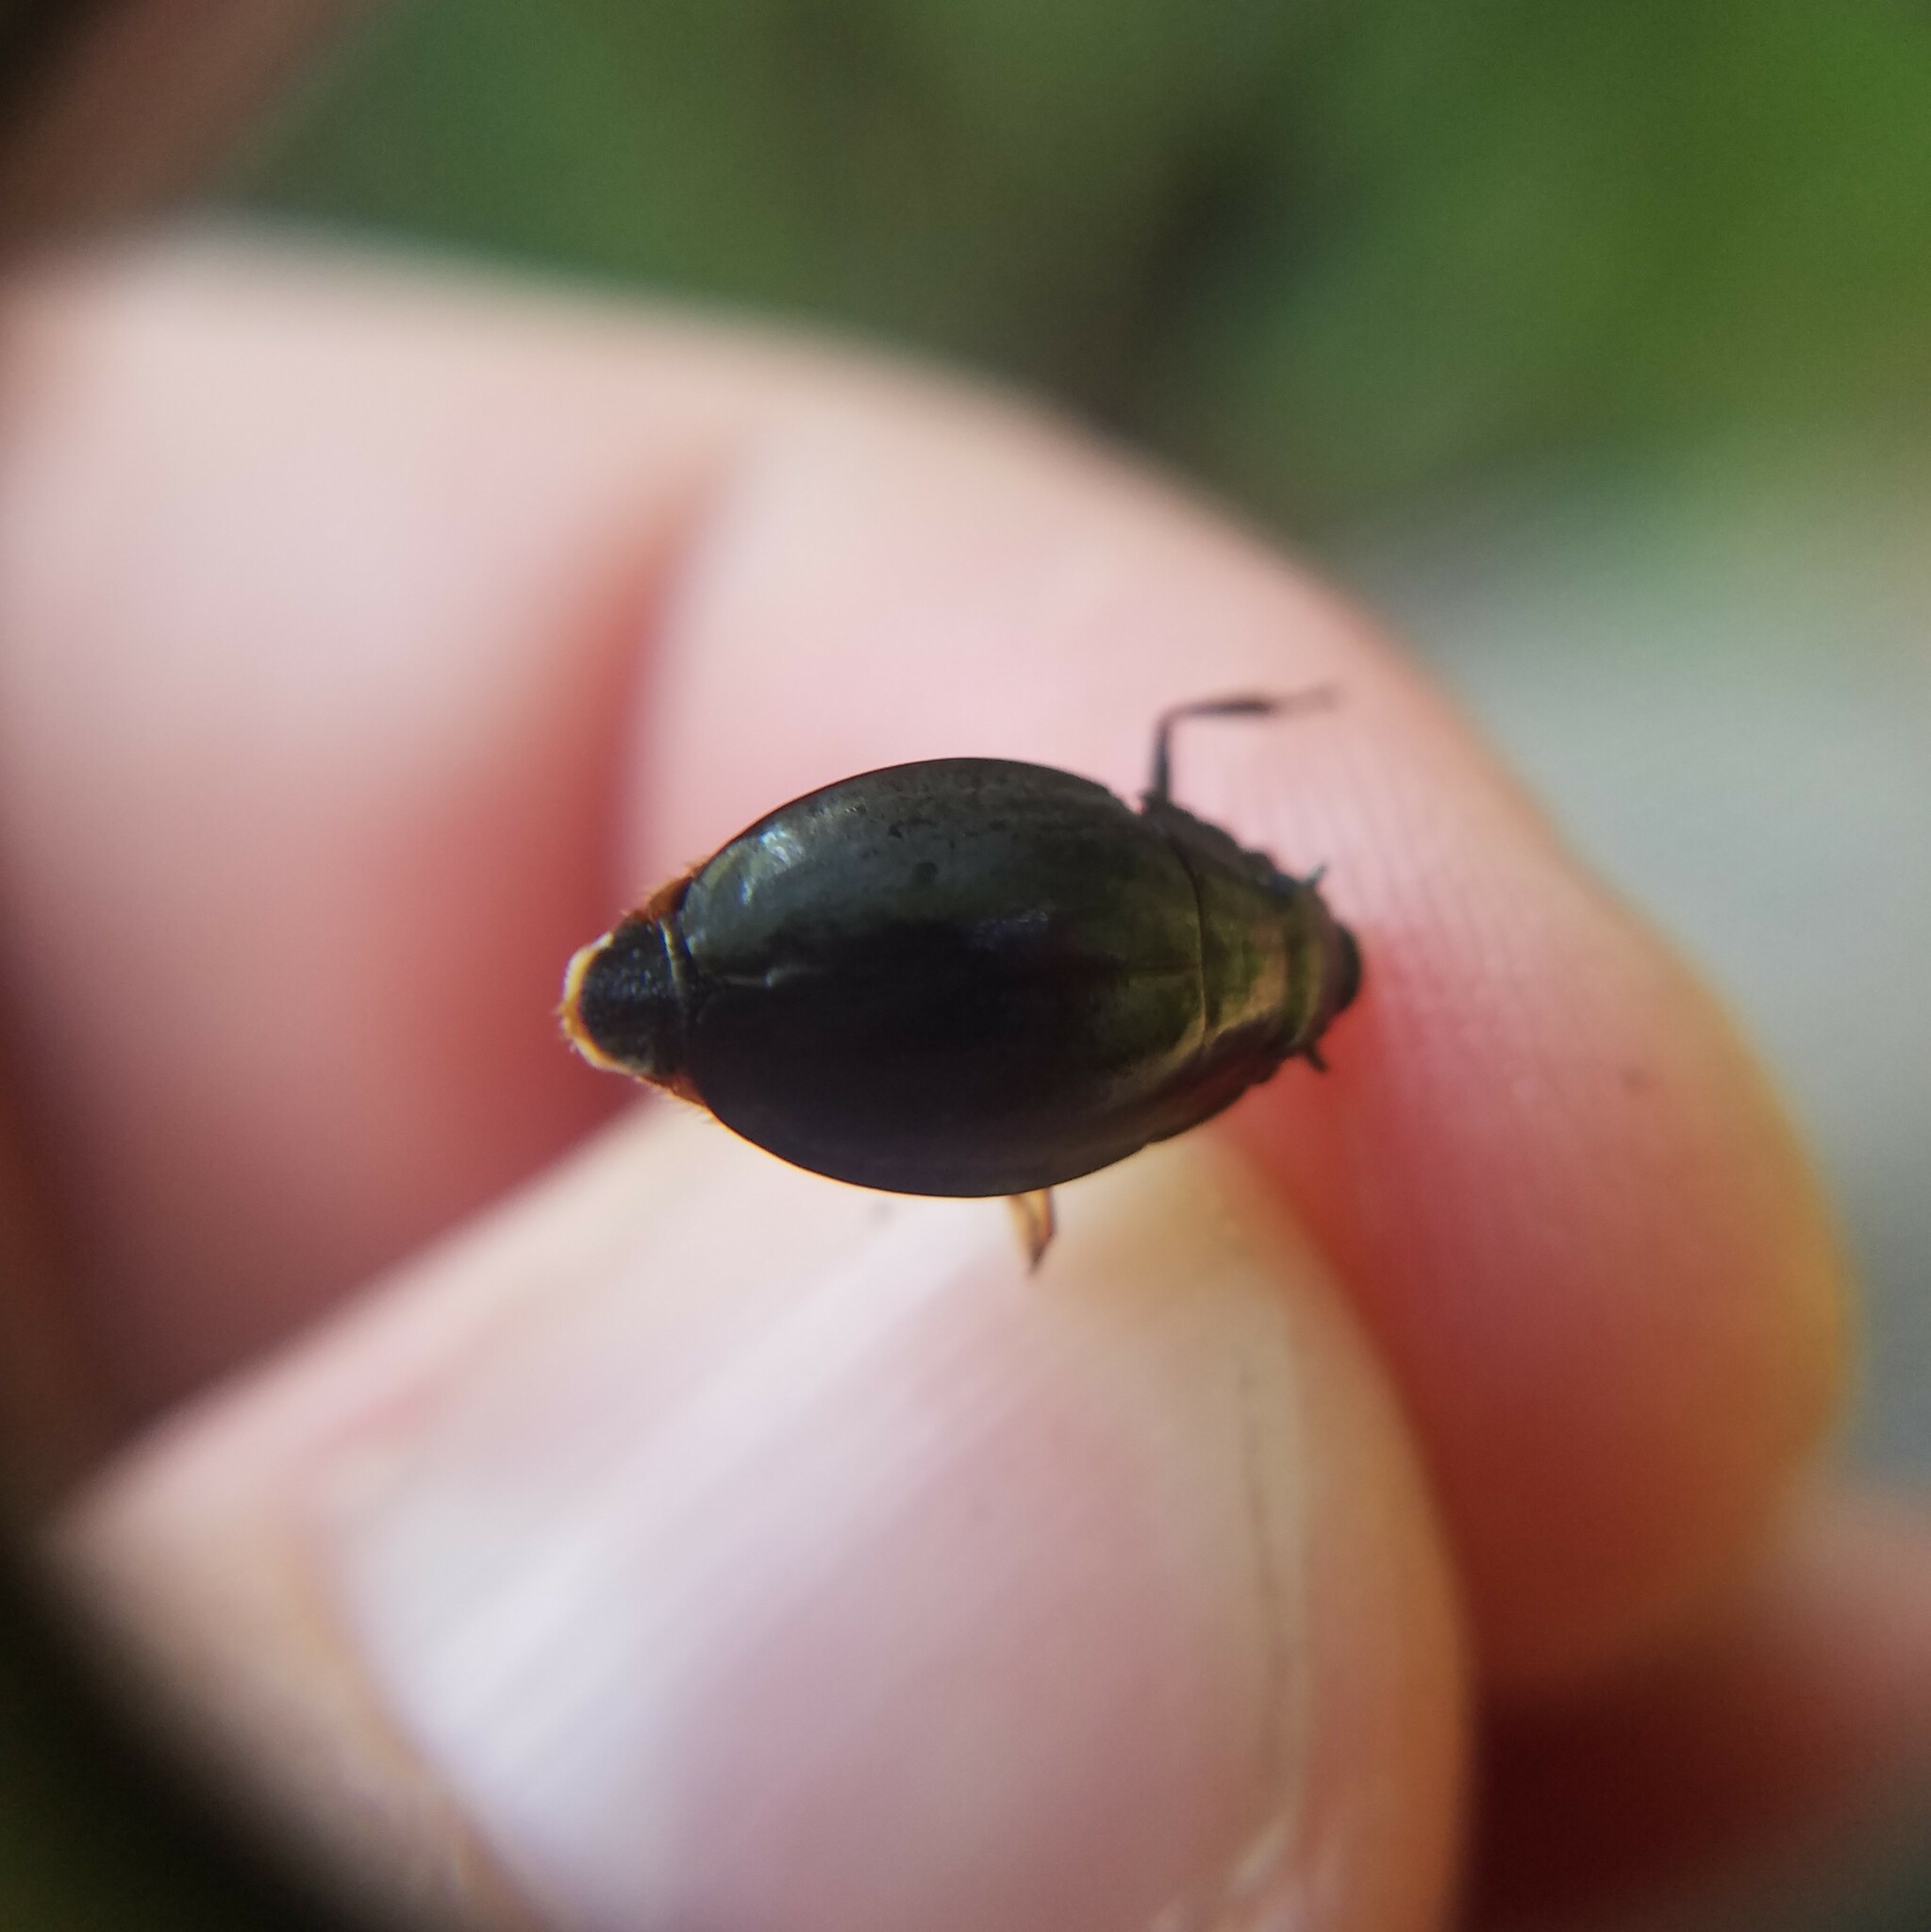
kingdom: Animalia
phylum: Arthropoda
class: Insecta
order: Coleoptera
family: Gyrinidae
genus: Dineutus
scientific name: Dineutus
